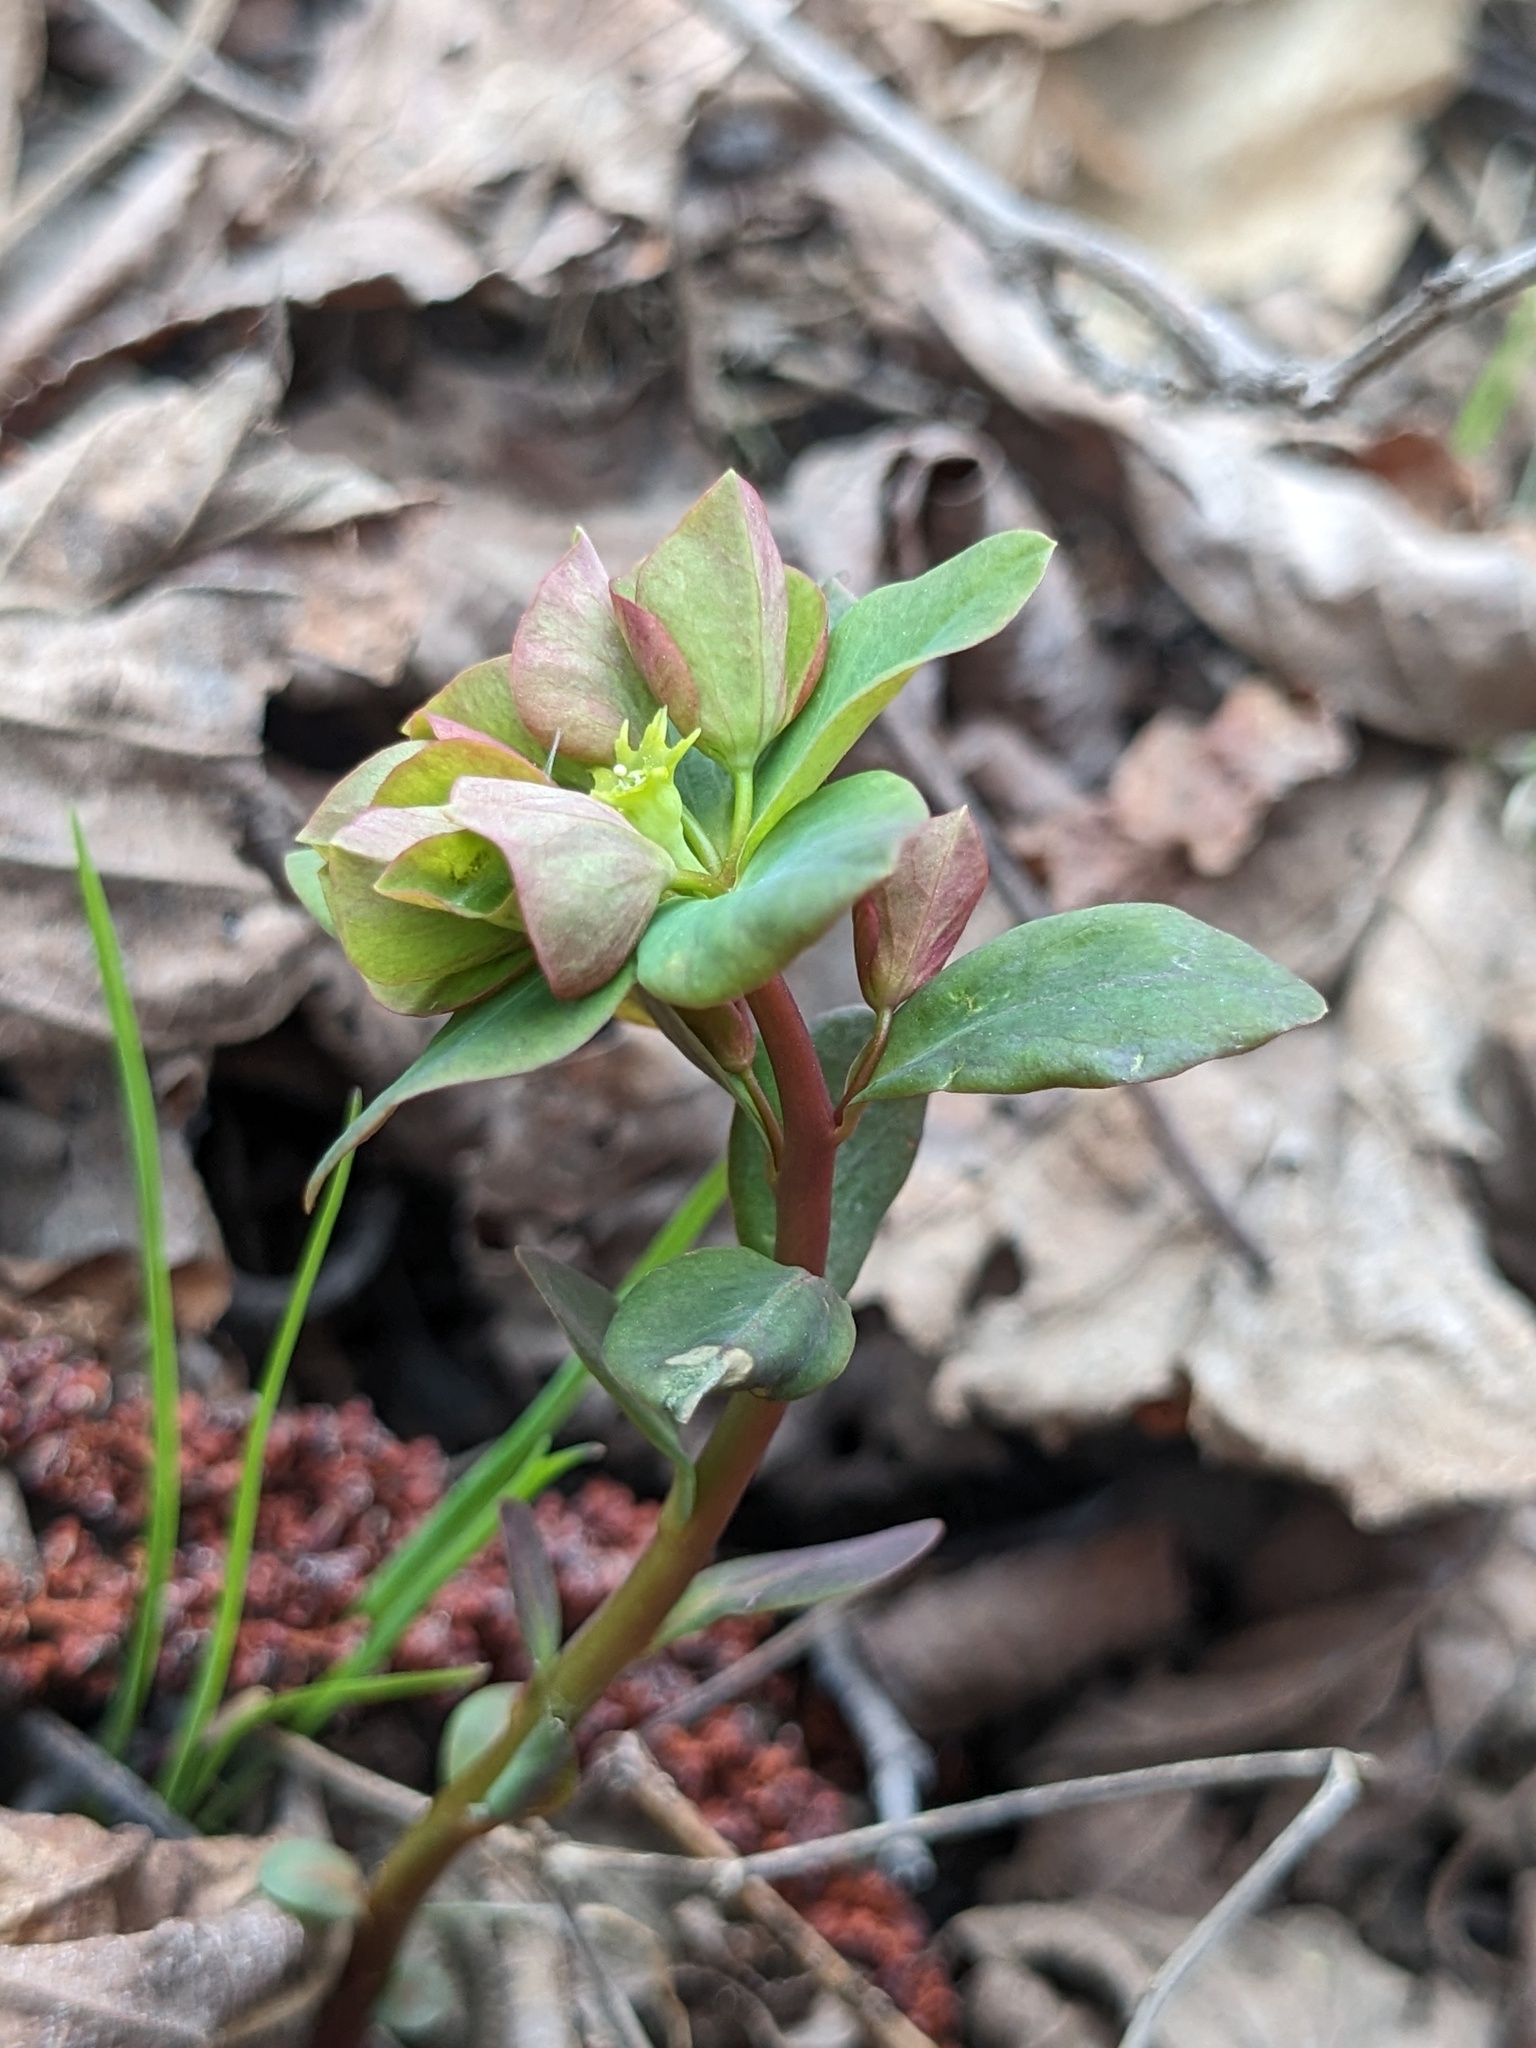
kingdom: Plantae
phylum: Tracheophyta
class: Magnoliopsida
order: Malpighiales
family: Euphorbiaceae
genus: Euphorbia
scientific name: Euphorbia sieboldiana
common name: Siebold's spurge
